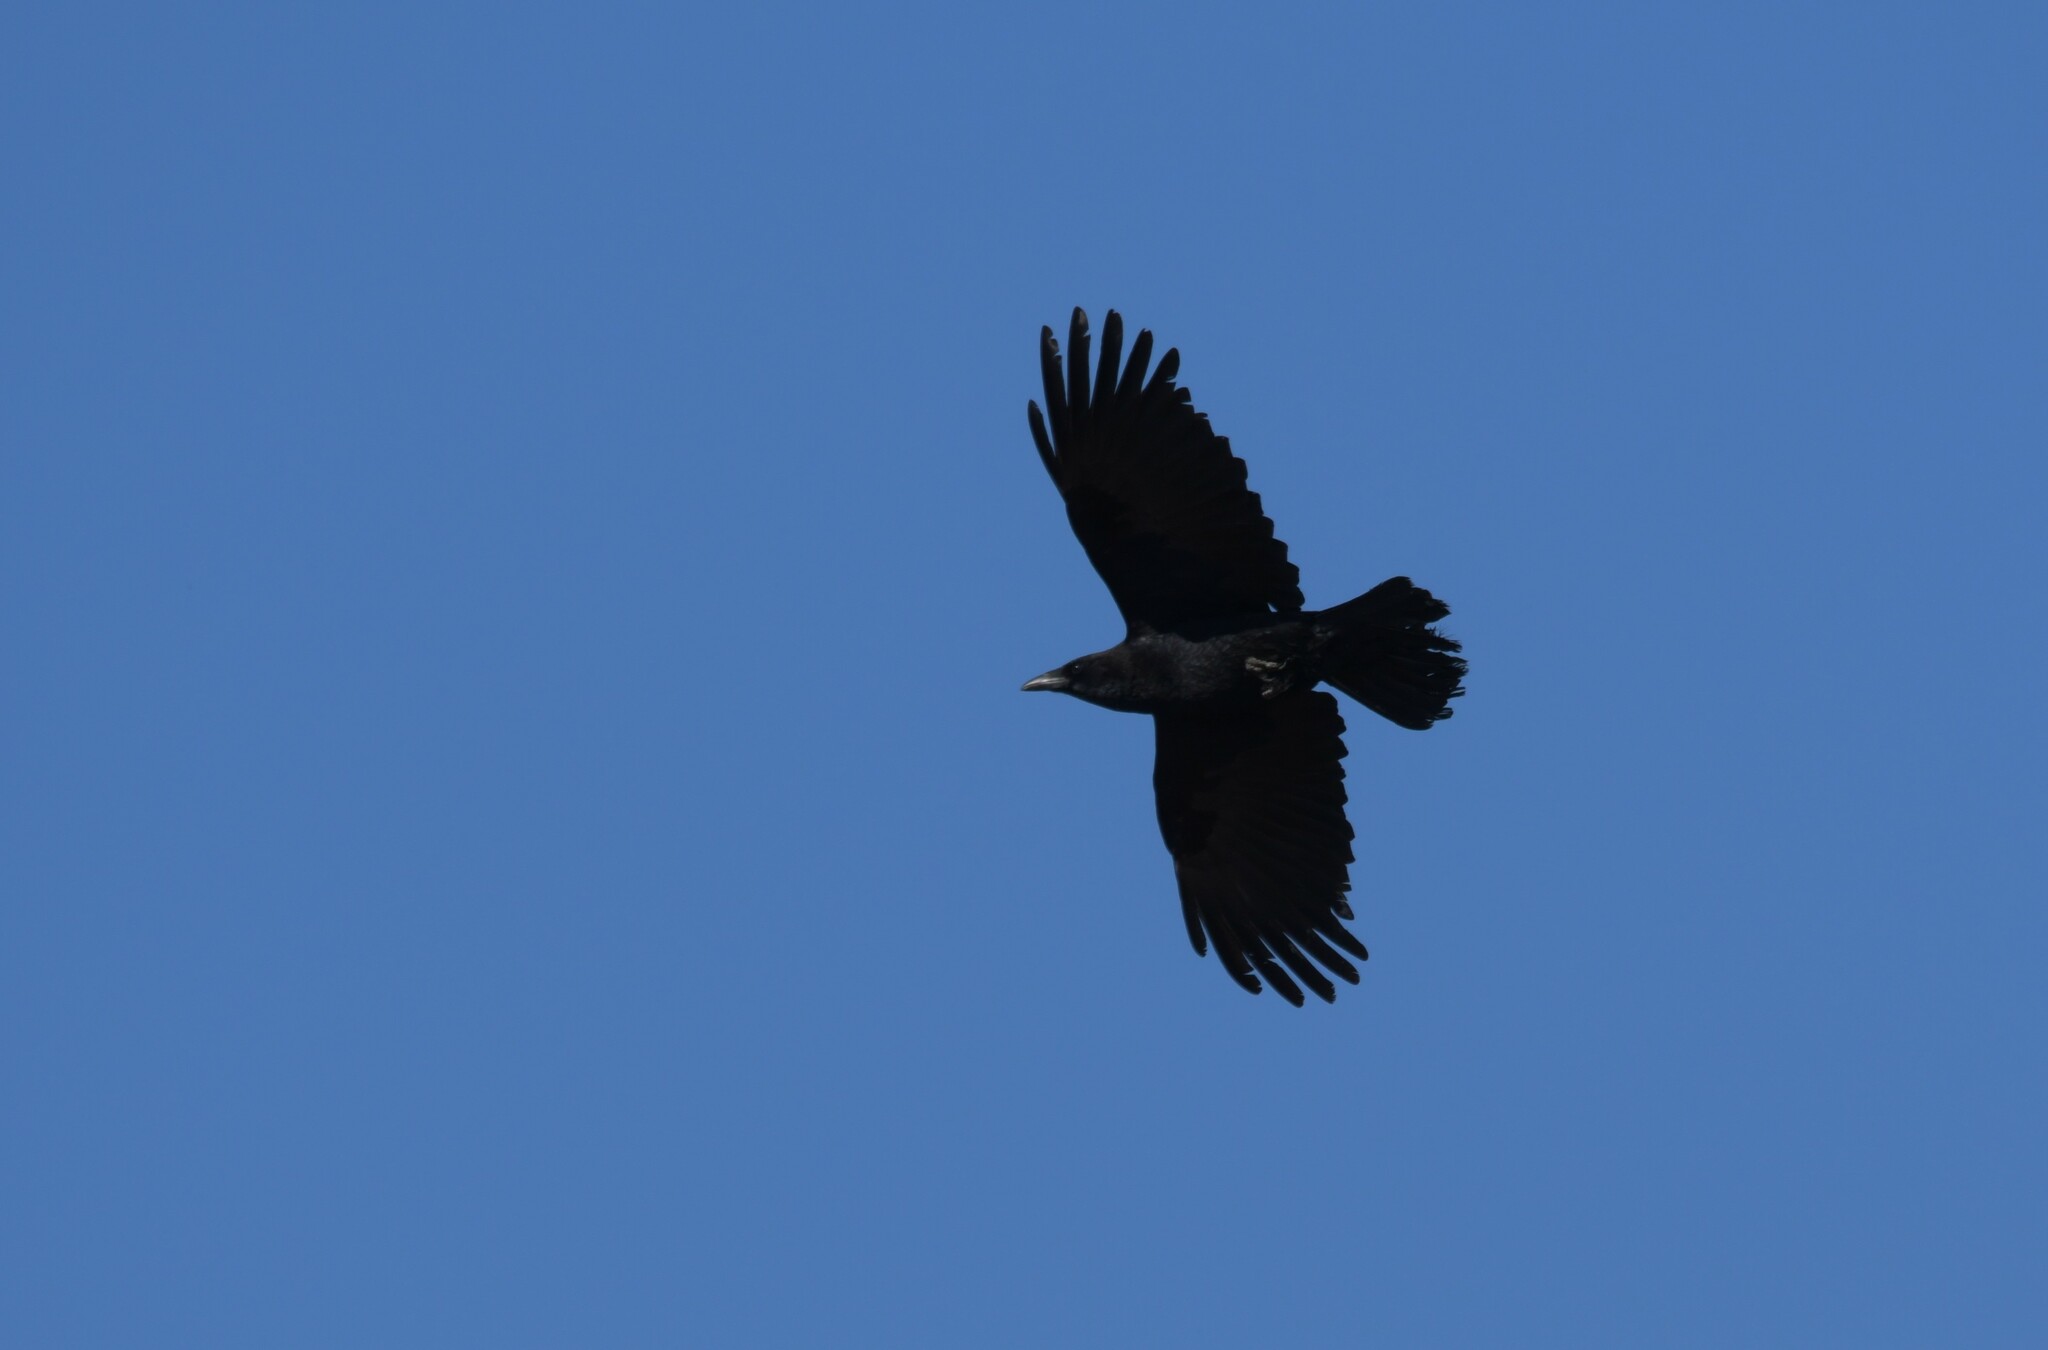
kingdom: Animalia
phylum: Chordata
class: Aves
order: Passeriformes
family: Corvidae
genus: Corvus
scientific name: Corvus corone
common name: Carrion crow
